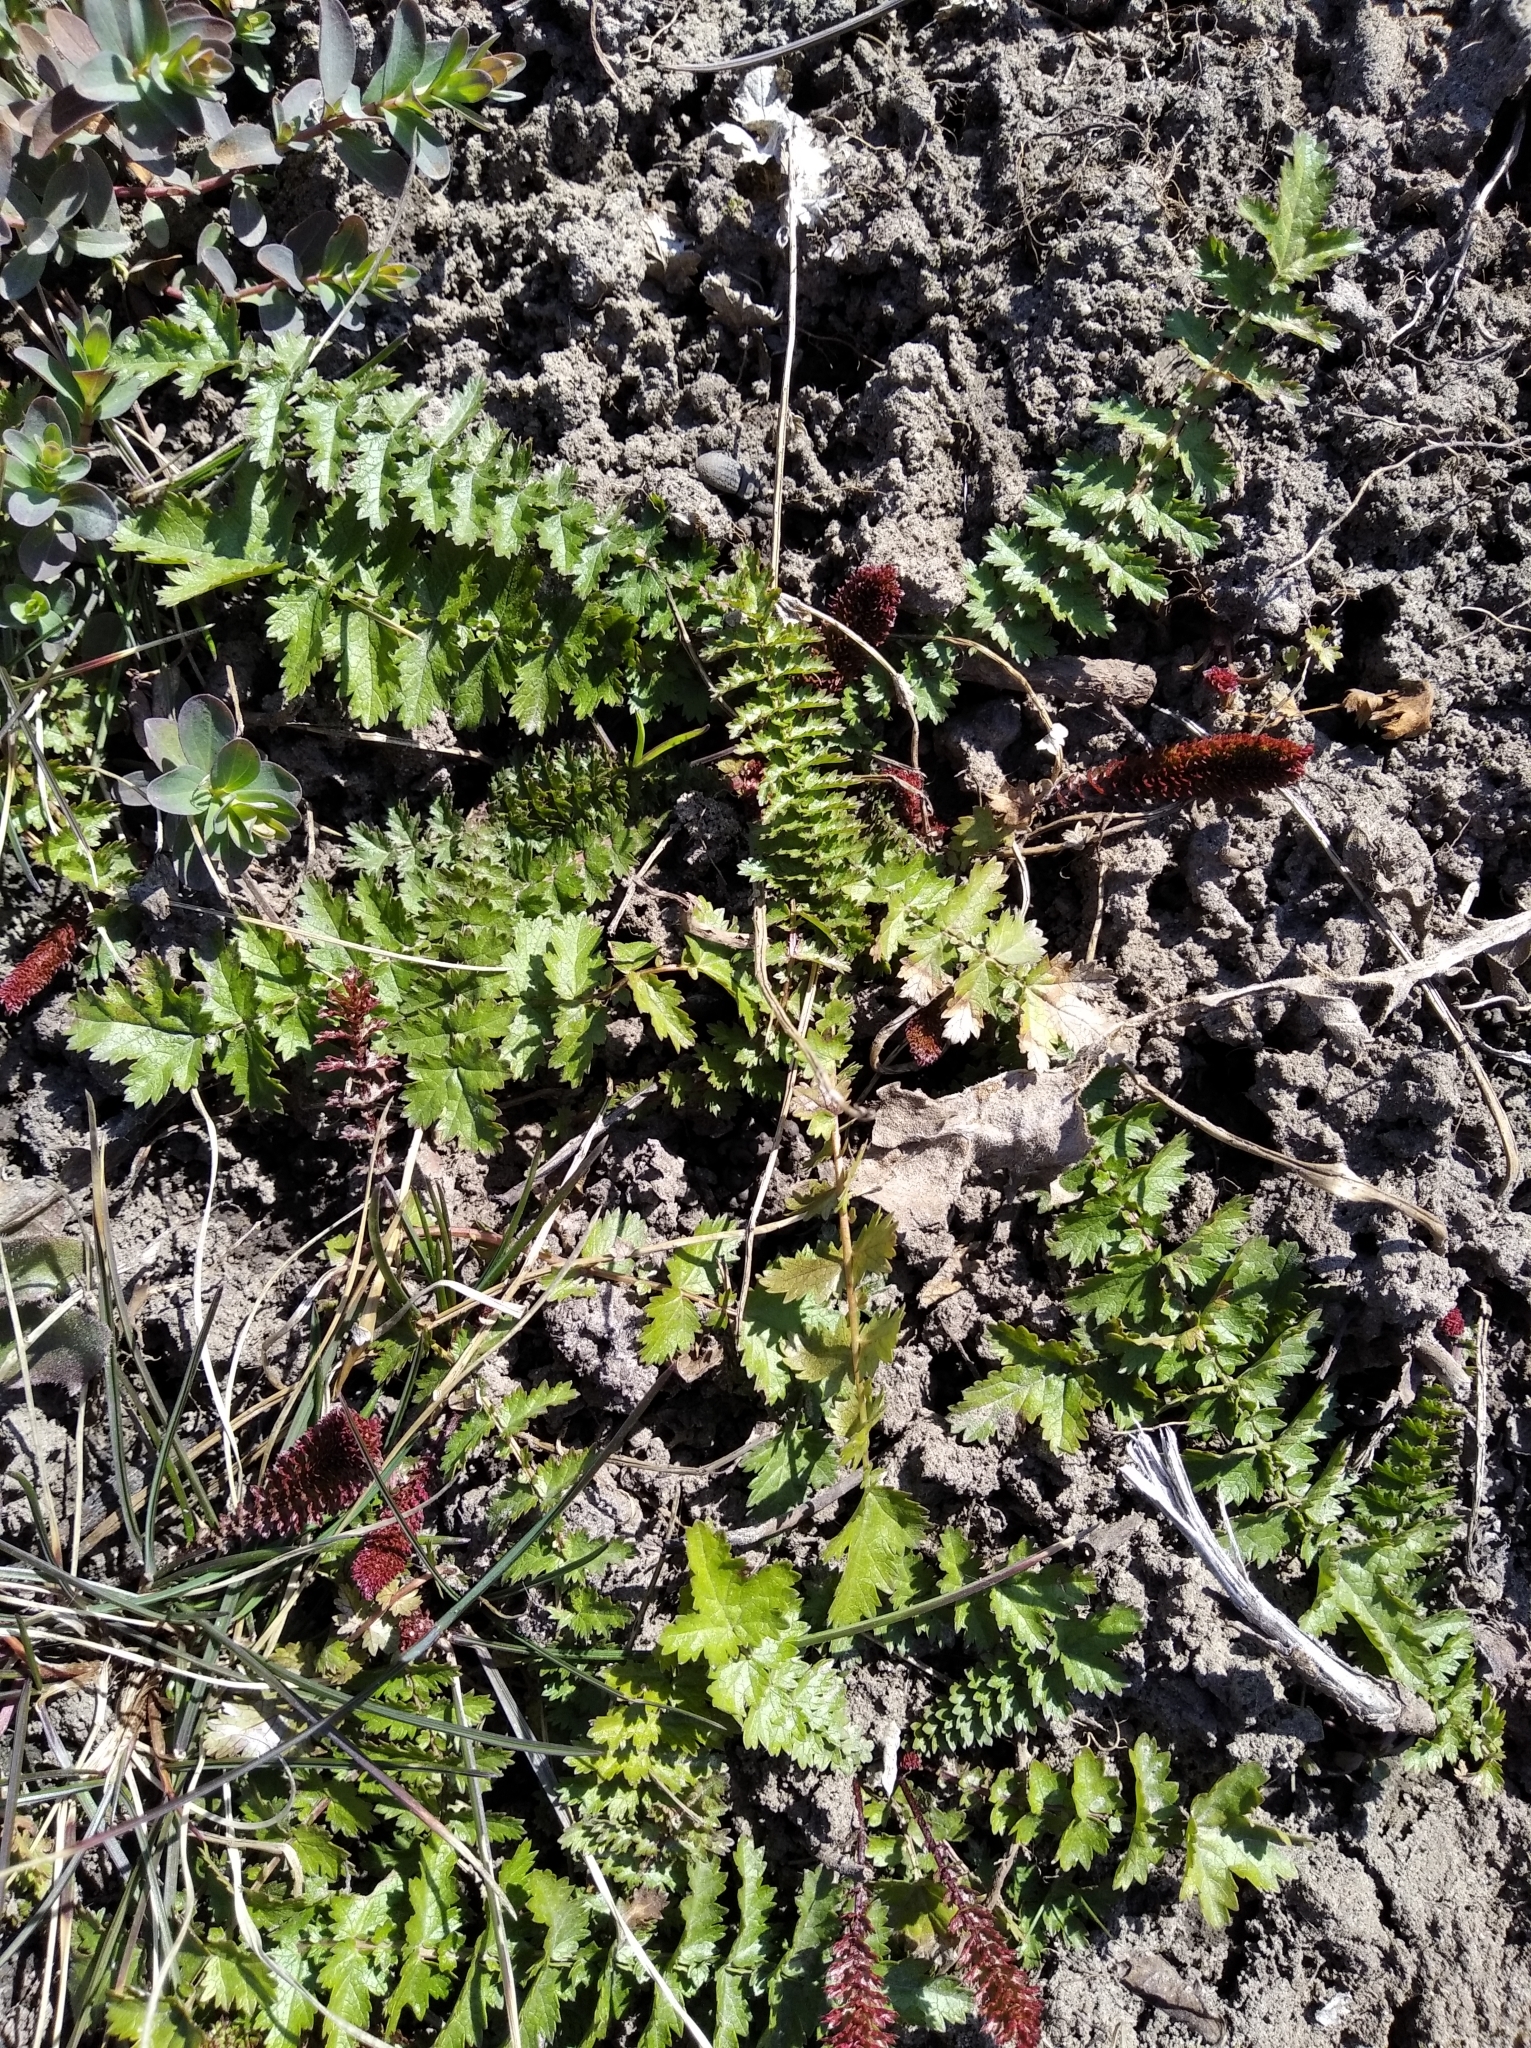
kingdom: Plantae
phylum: Tracheophyta
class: Magnoliopsida
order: Rosales
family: Rosaceae
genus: Filipendula
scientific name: Filipendula vulgaris
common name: Dropwort
